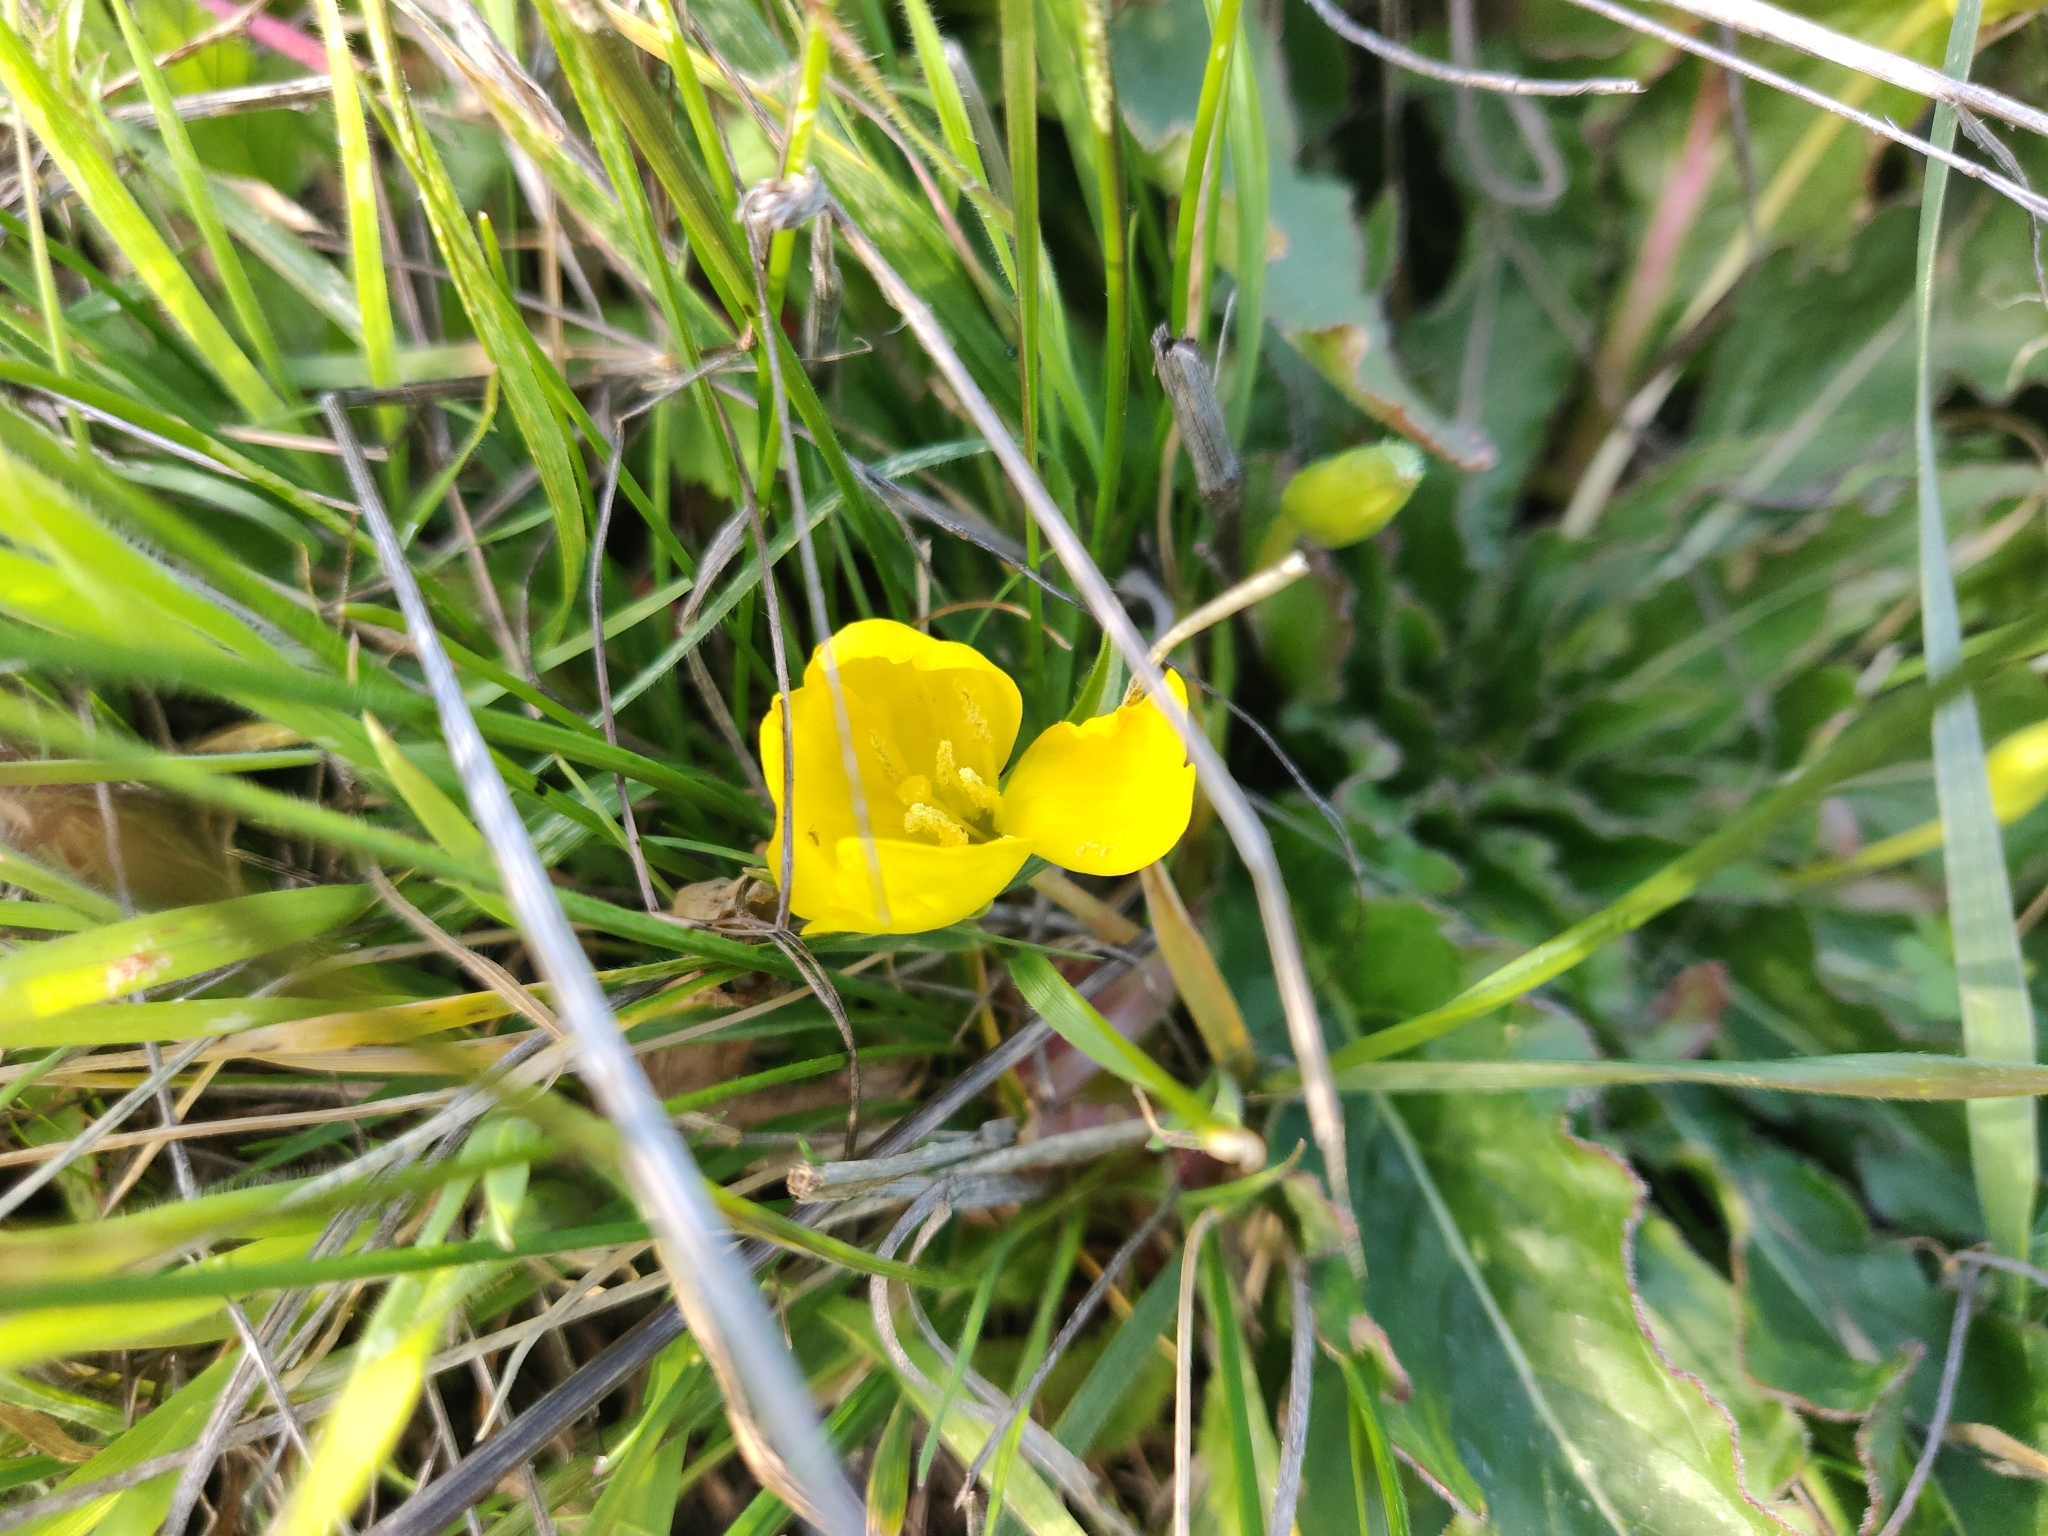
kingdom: Plantae
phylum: Tracheophyta
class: Magnoliopsida
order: Myrtales
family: Onagraceae
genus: Taraxia
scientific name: Taraxia ovata
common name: Goldeneggs
